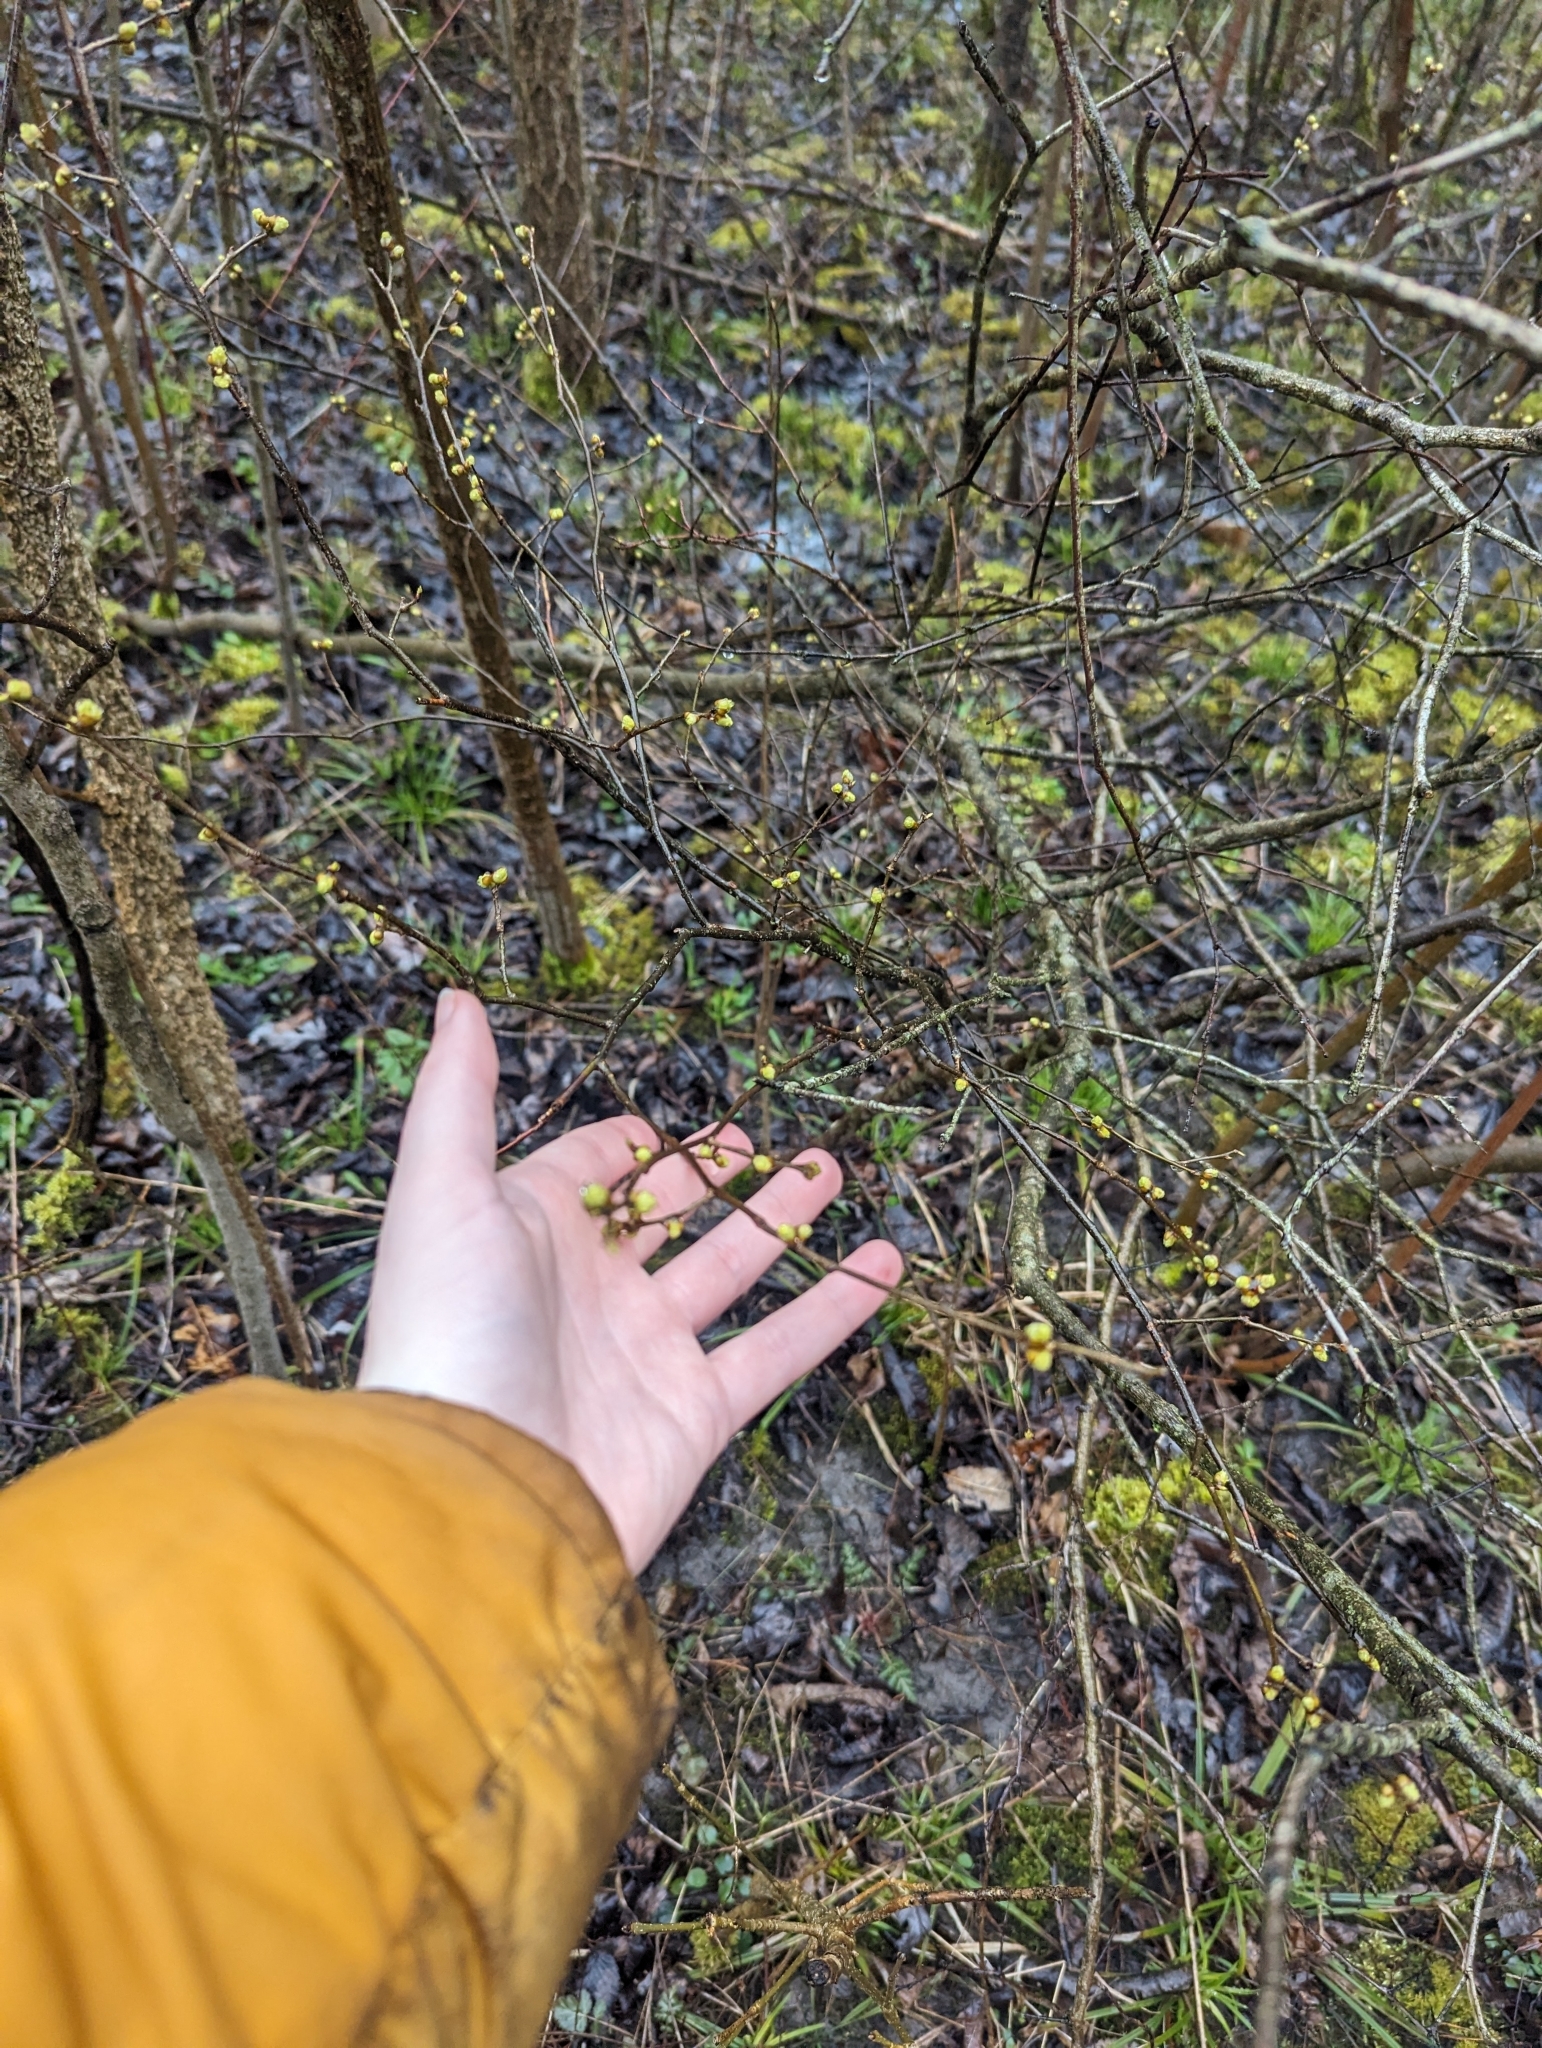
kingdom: Plantae
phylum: Tracheophyta
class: Magnoliopsida
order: Laurales
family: Lauraceae
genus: Lindera
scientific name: Lindera benzoin
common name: Spicebush
